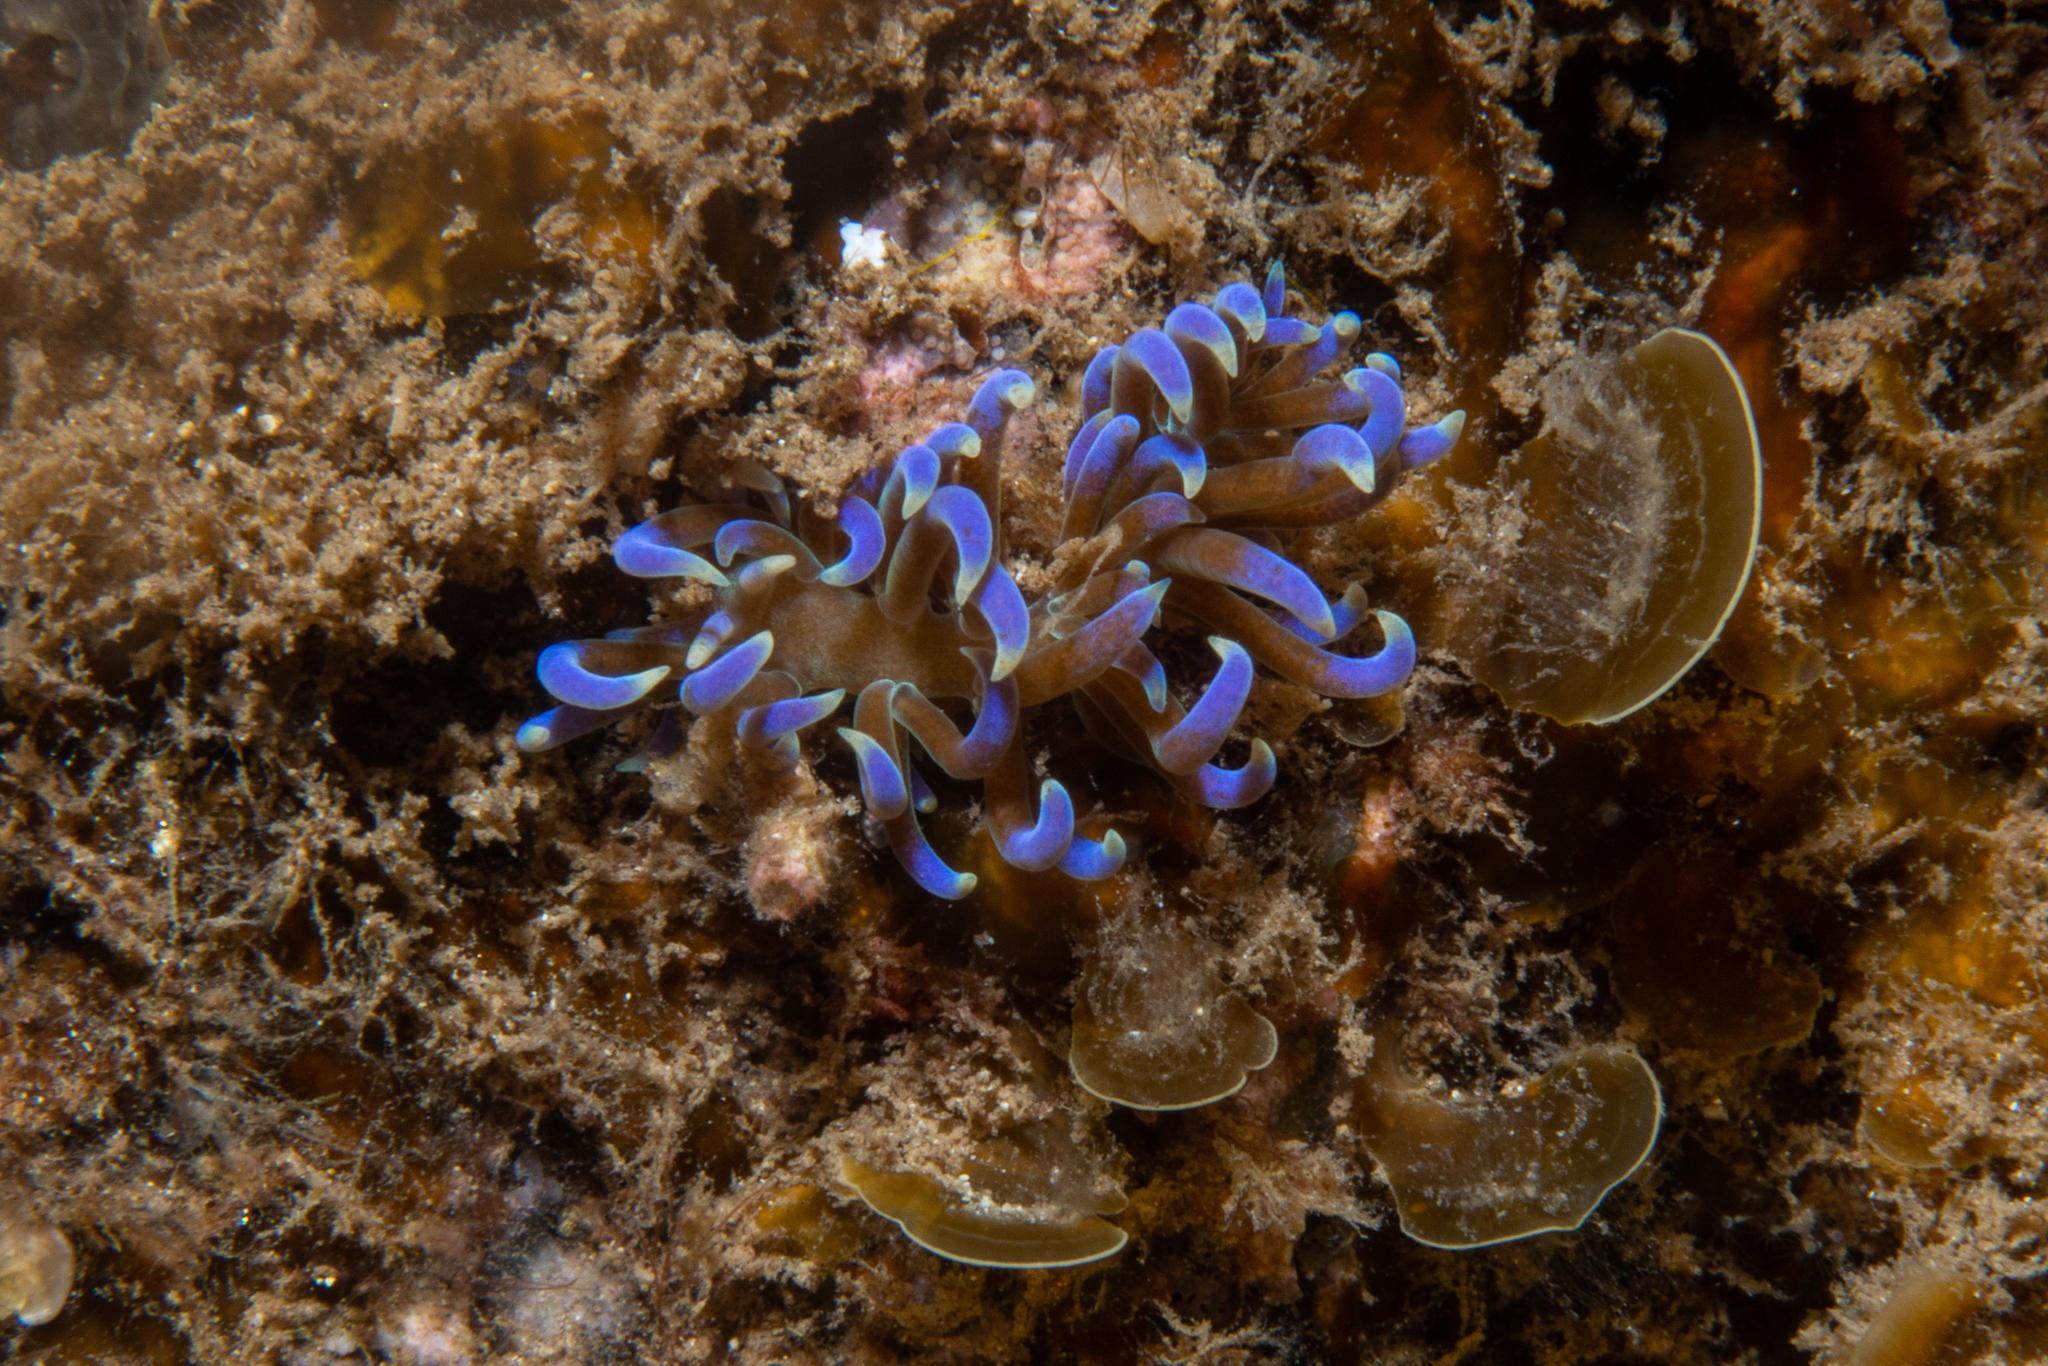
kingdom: Animalia
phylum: Mollusca
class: Gastropoda
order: Nudibranchia
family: Myrrhinidae
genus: Phyllodesmium
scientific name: Phyllodesmium macphersonae
